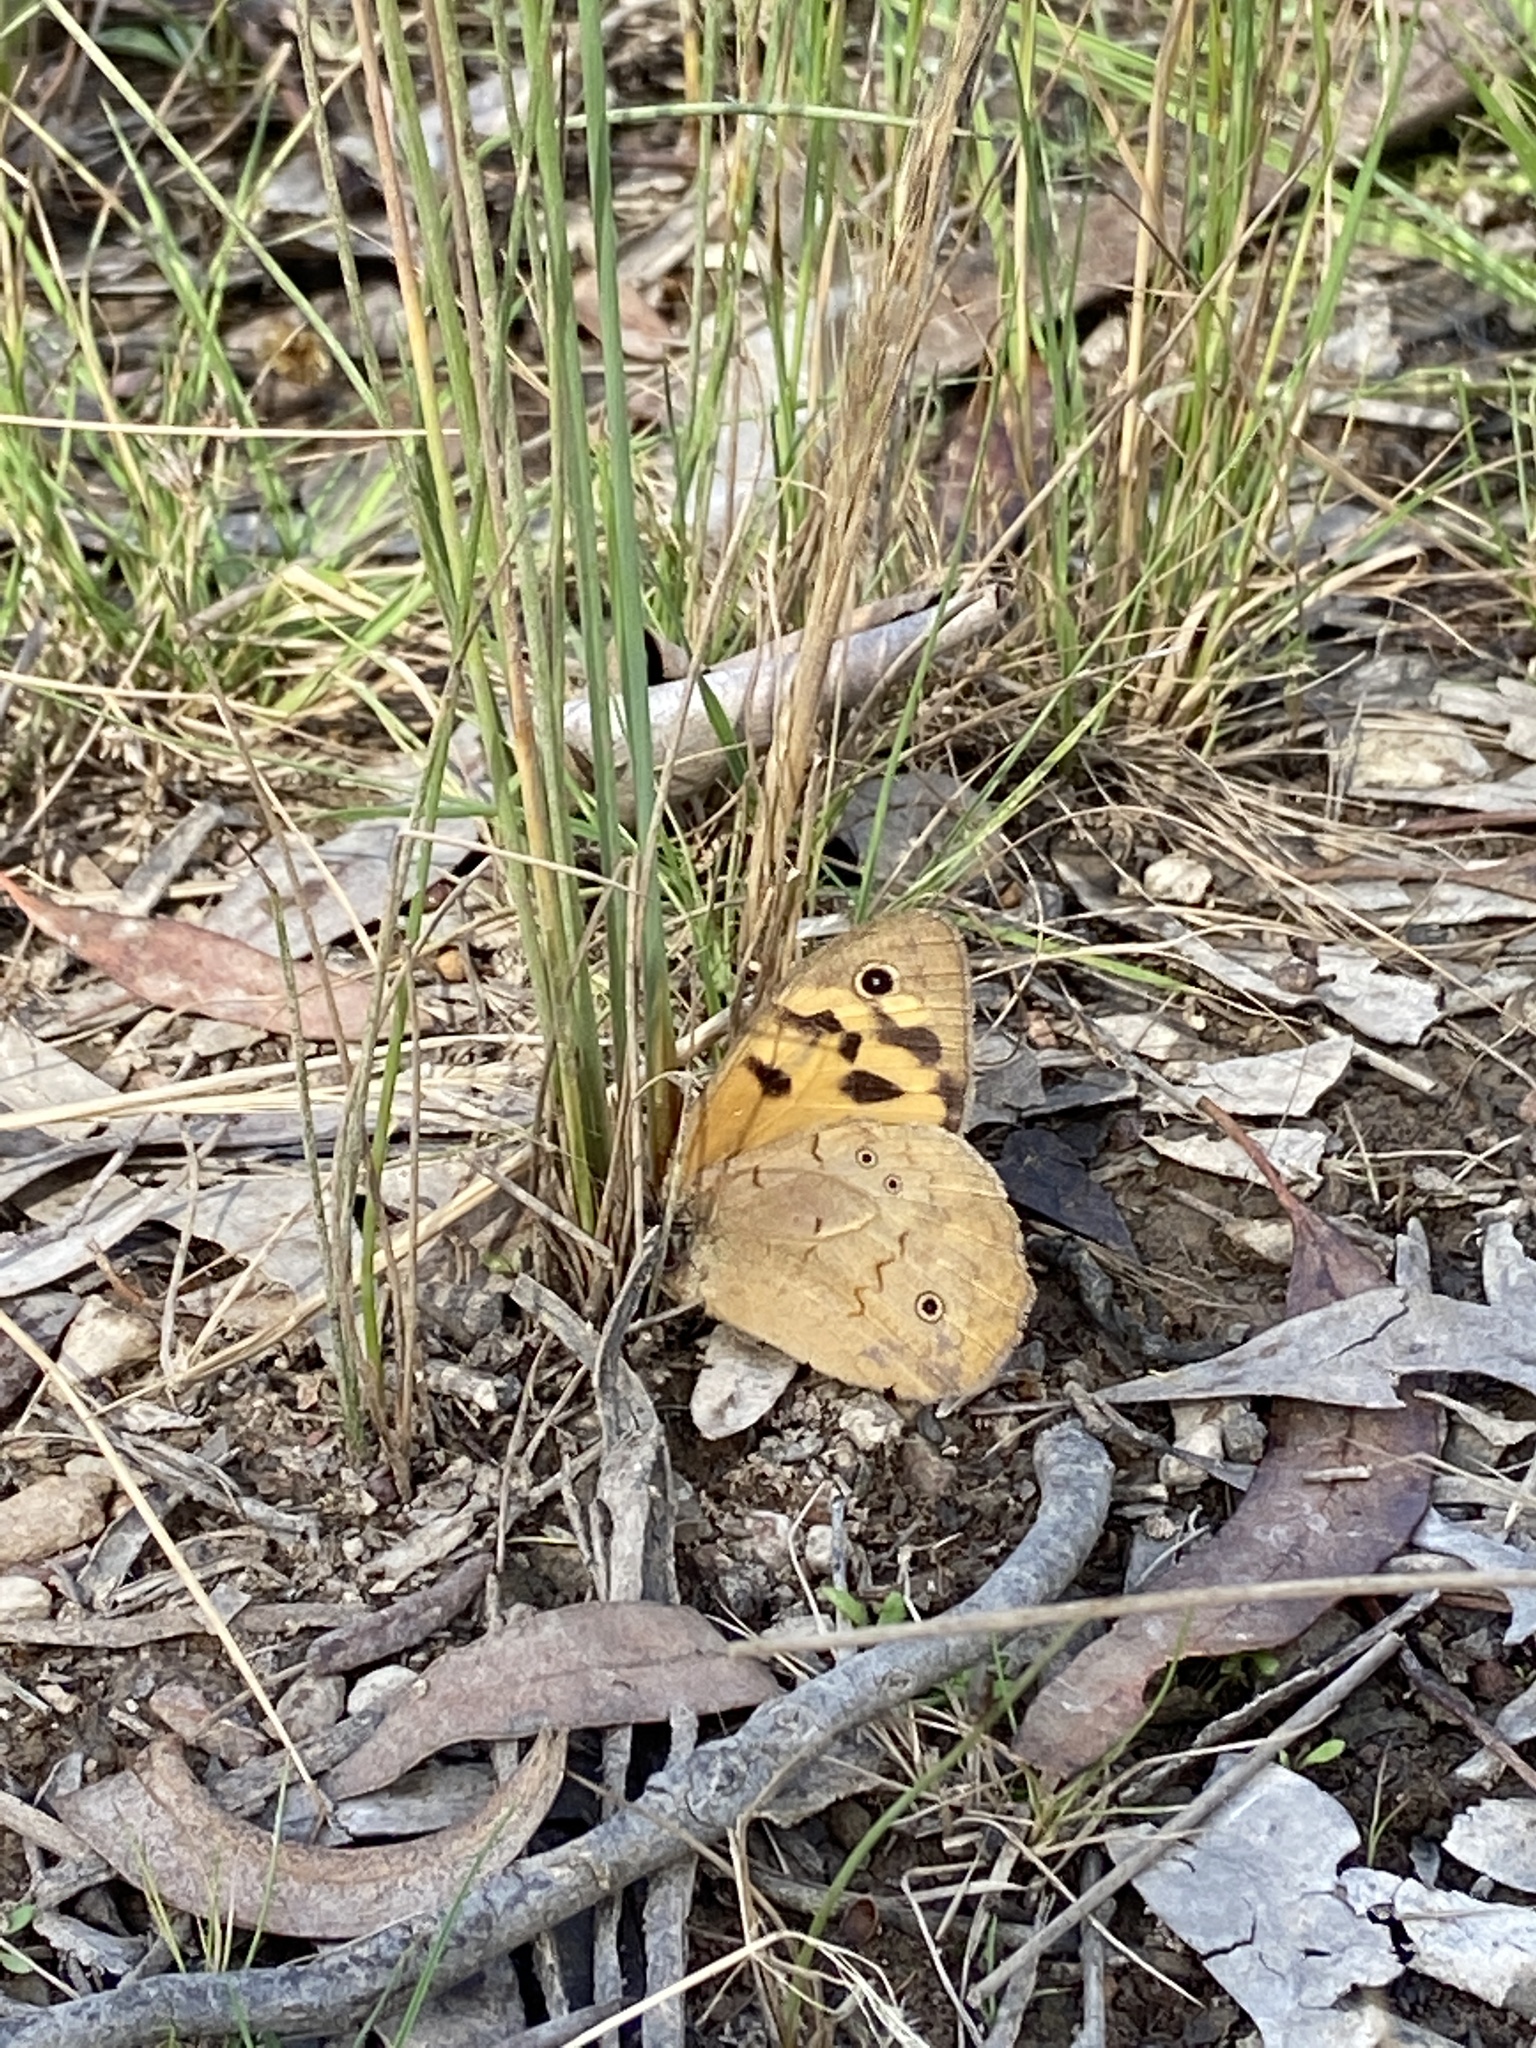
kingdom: Animalia
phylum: Arthropoda
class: Insecta
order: Lepidoptera
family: Nymphalidae
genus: Heteronympha
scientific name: Heteronympha merope
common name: Common brown
